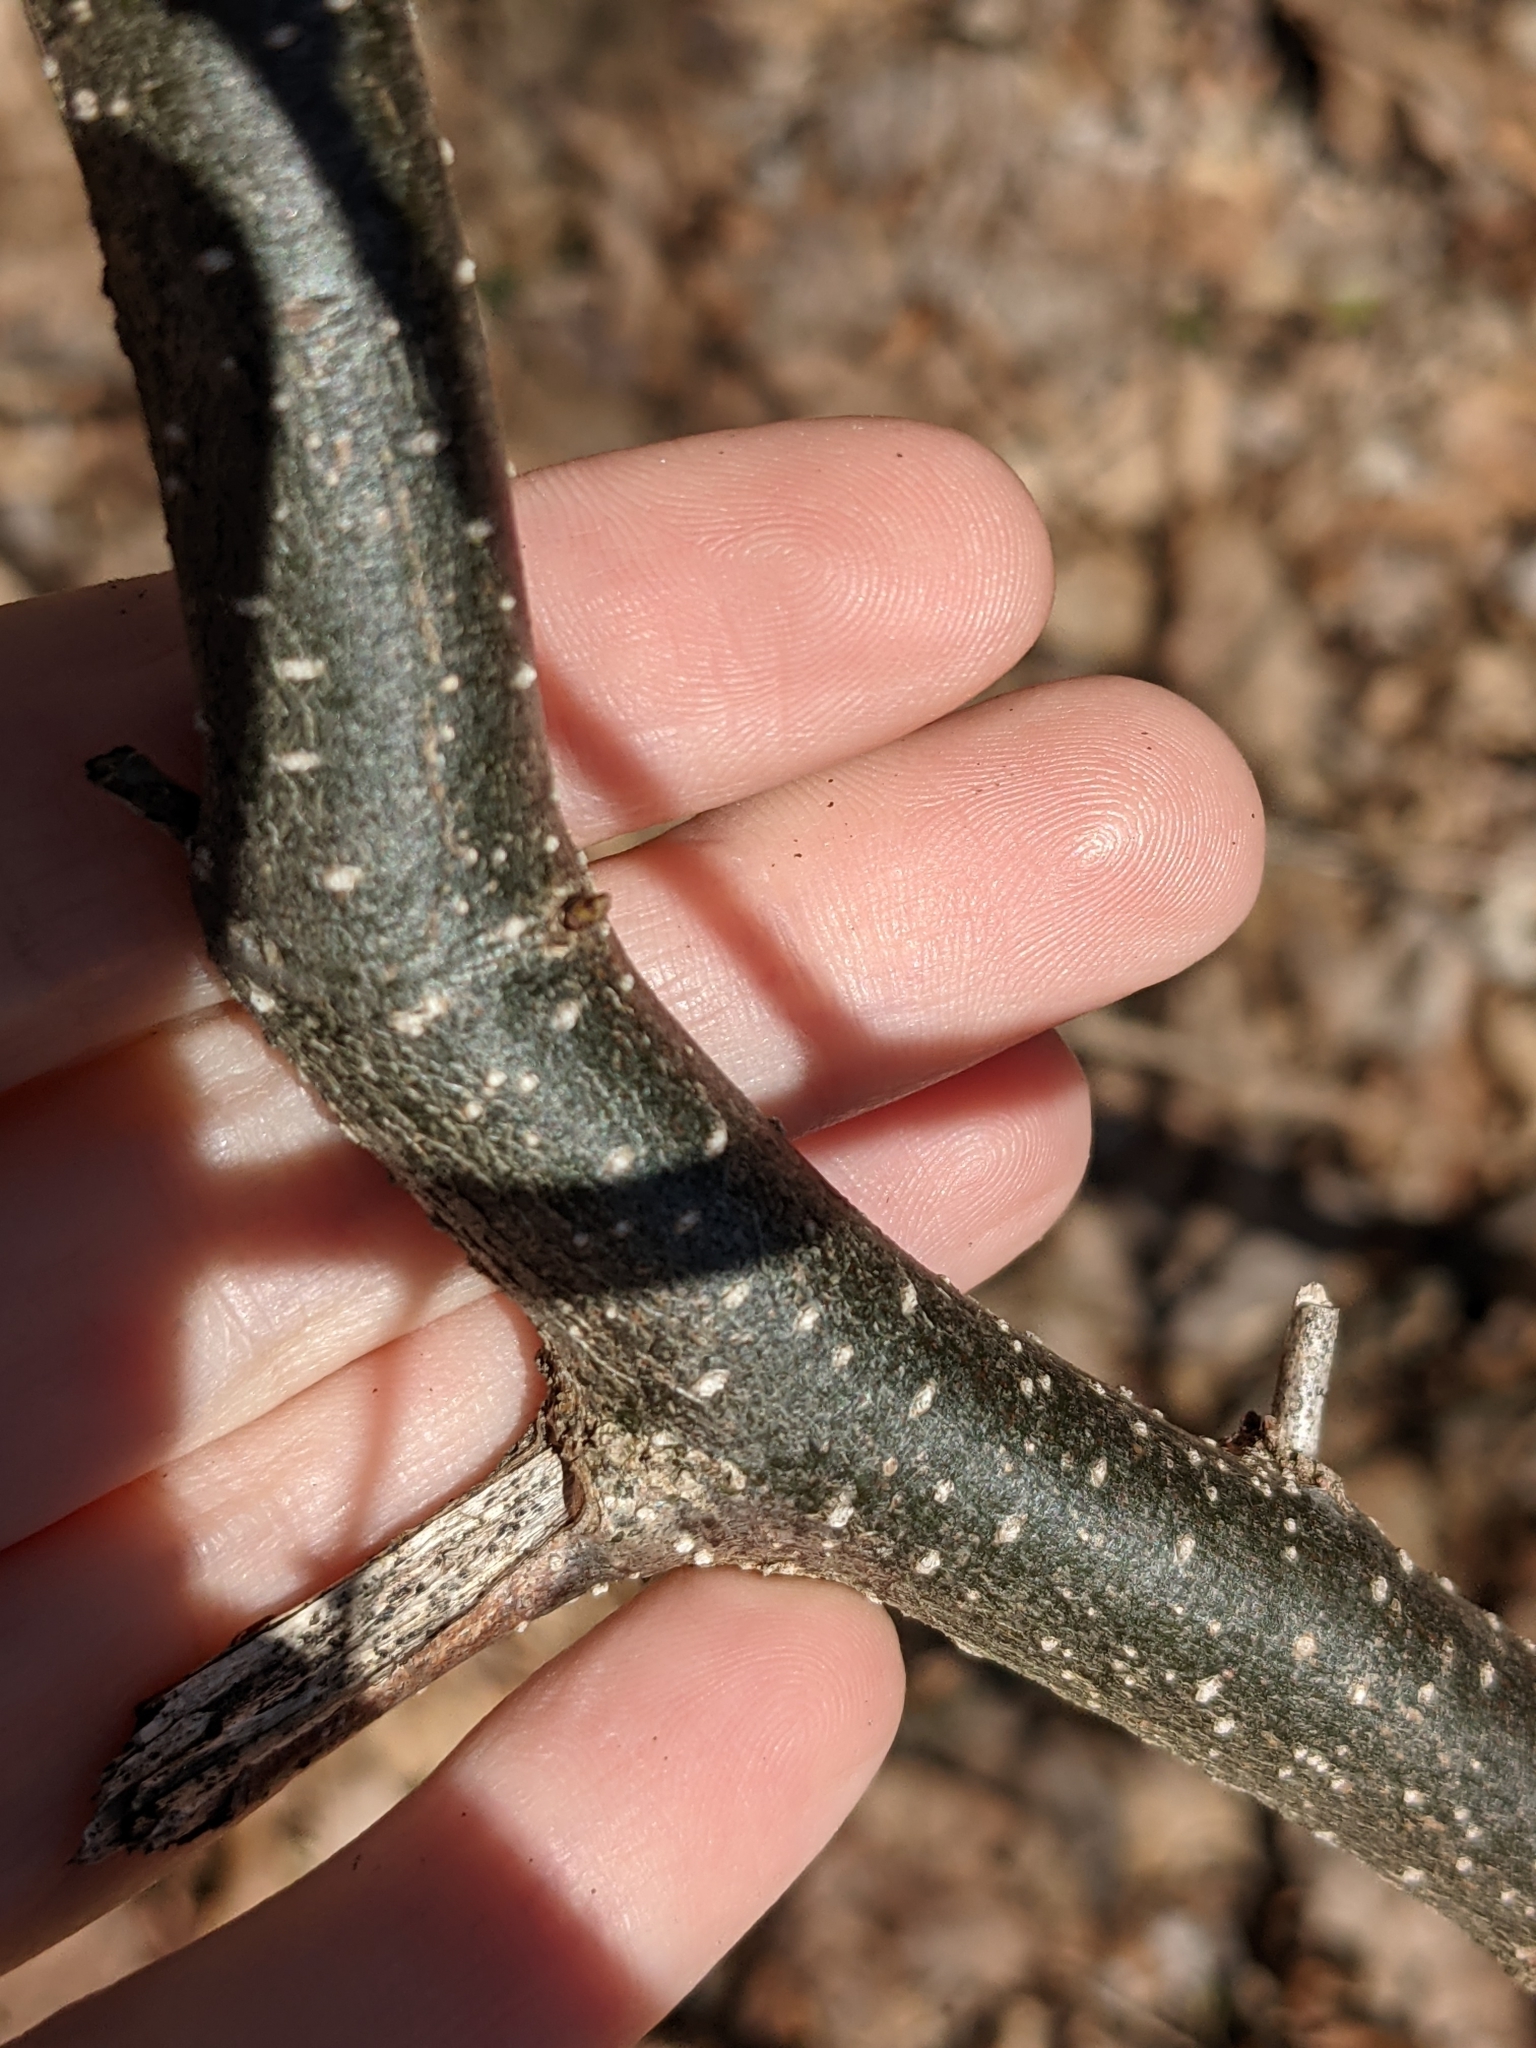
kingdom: Plantae
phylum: Tracheophyta
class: Magnoliopsida
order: Laurales
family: Lauraceae
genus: Lindera
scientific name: Lindera benzoin
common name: Spicebush
